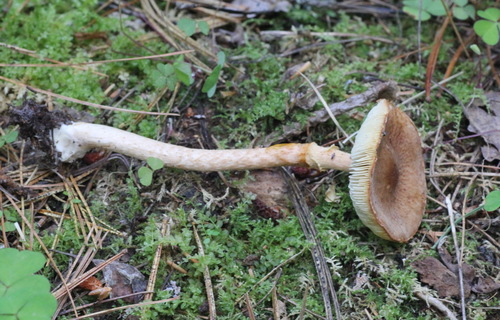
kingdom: Fungi
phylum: Basidiomycota
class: Agaricomycetes
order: Agaricales
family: Amanitaceae
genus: Limacella
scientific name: Limacella delicata
